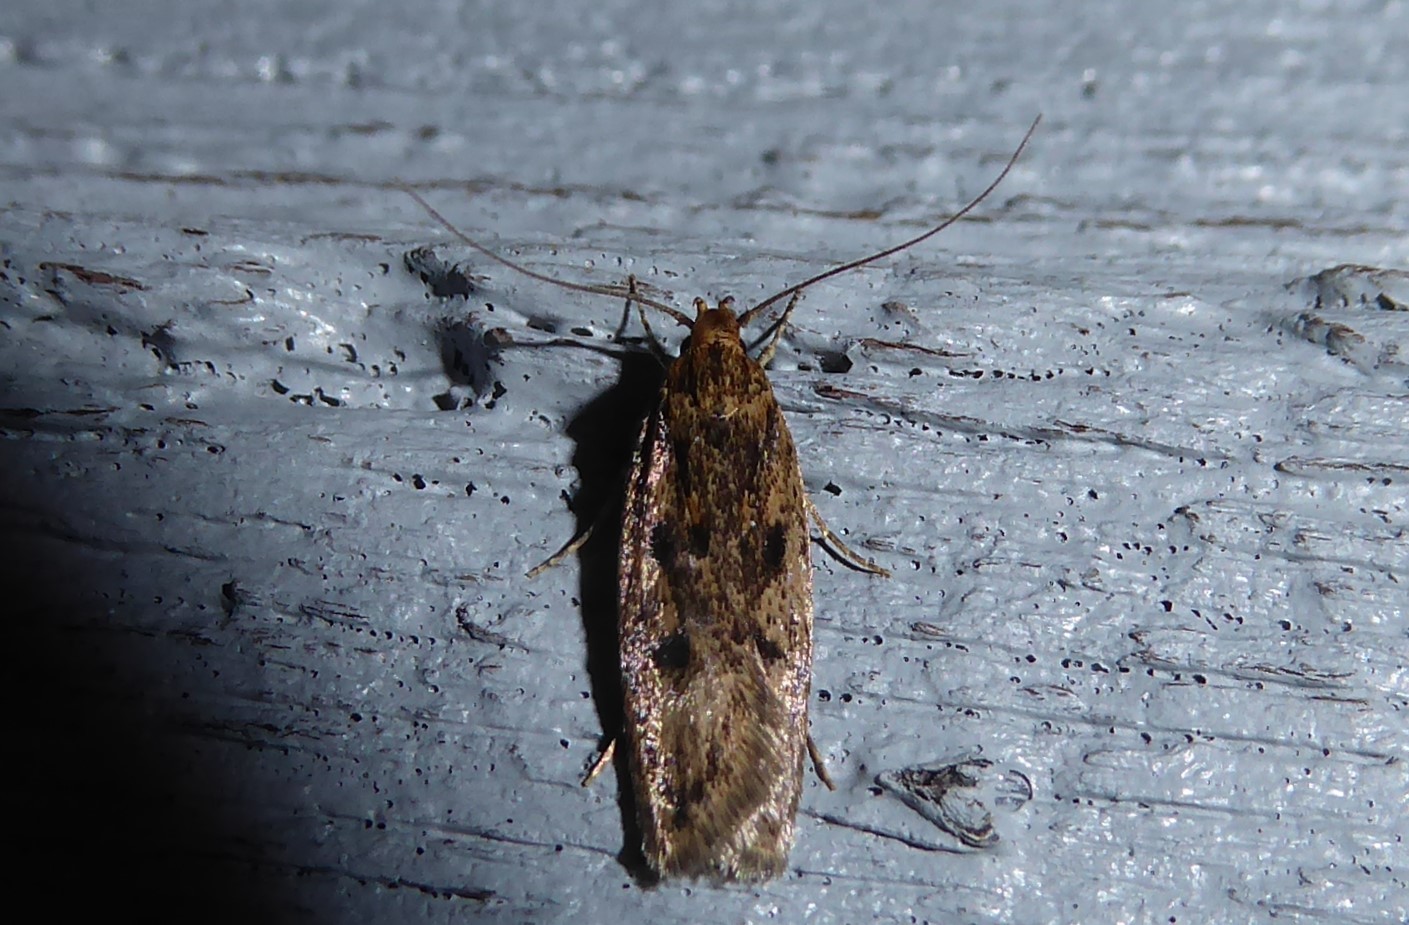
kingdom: Animalia
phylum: Arthropoda
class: Insecta
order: Lepidoptera
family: Oecophoridae
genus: Hofmannophila
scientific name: Hofmannophila pseudospretella
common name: Brown house moth
